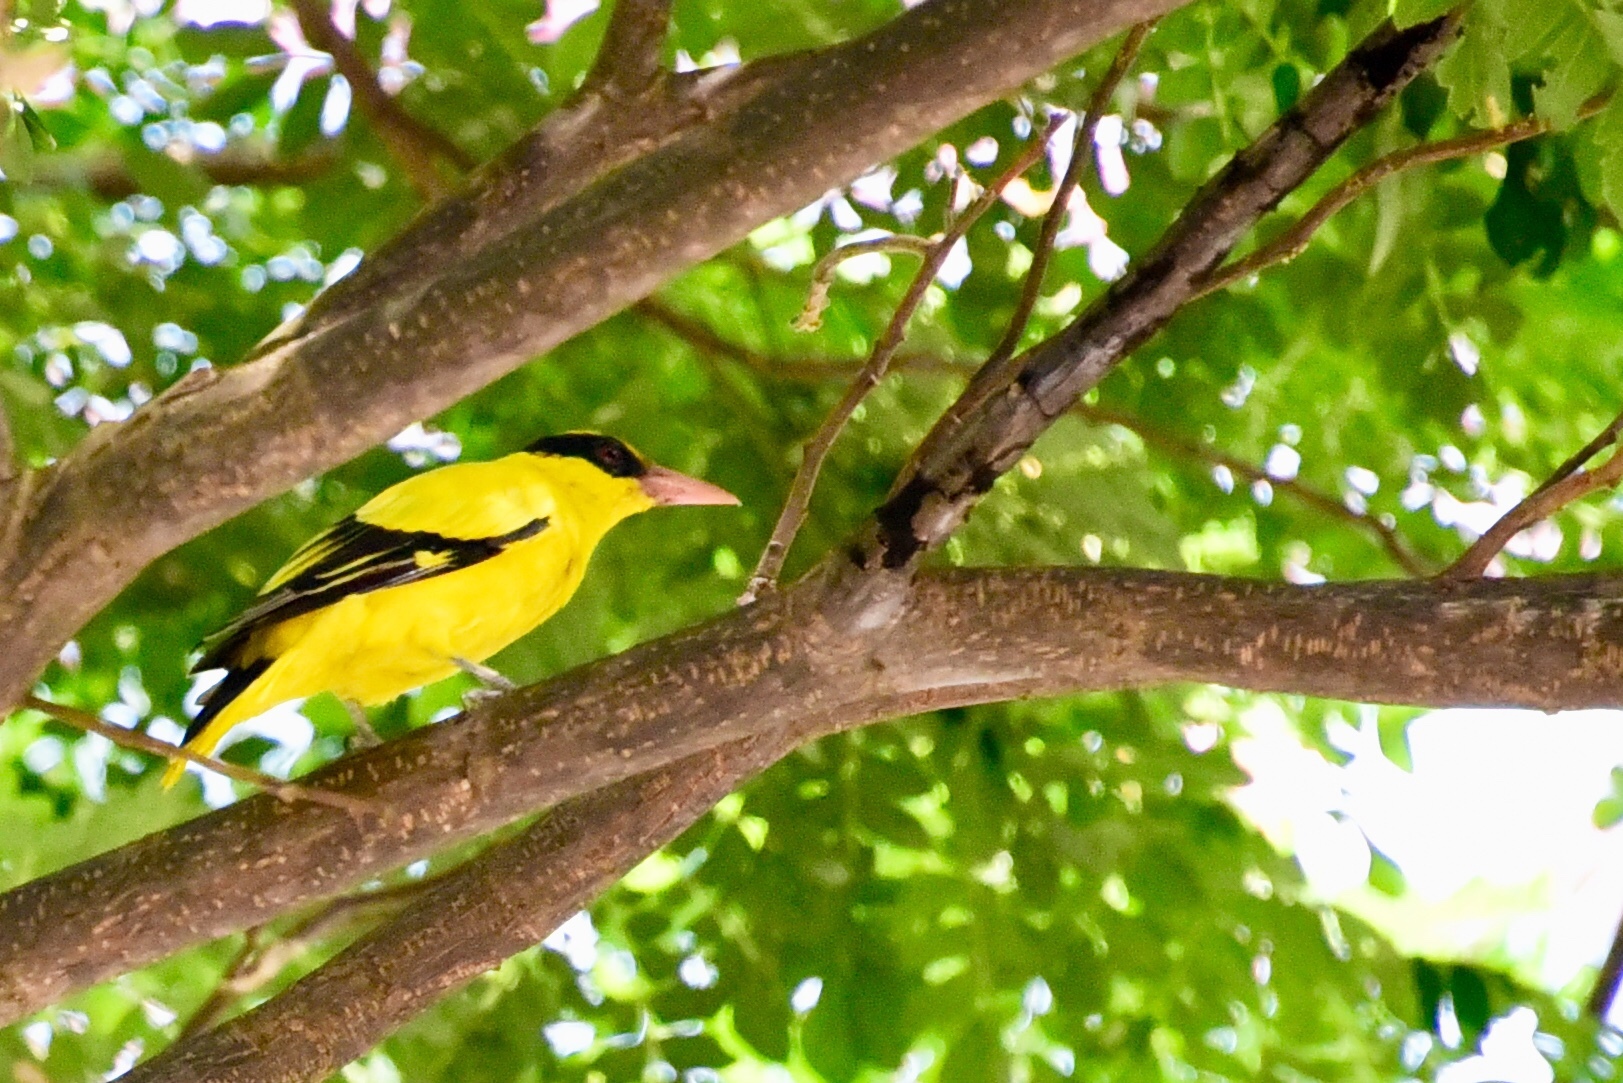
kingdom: Animalia
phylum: Chordata
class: Aves
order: Passeriformes
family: Oriolidae
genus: Oriolus
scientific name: Oriolus chinensis
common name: Black-naped oriole
